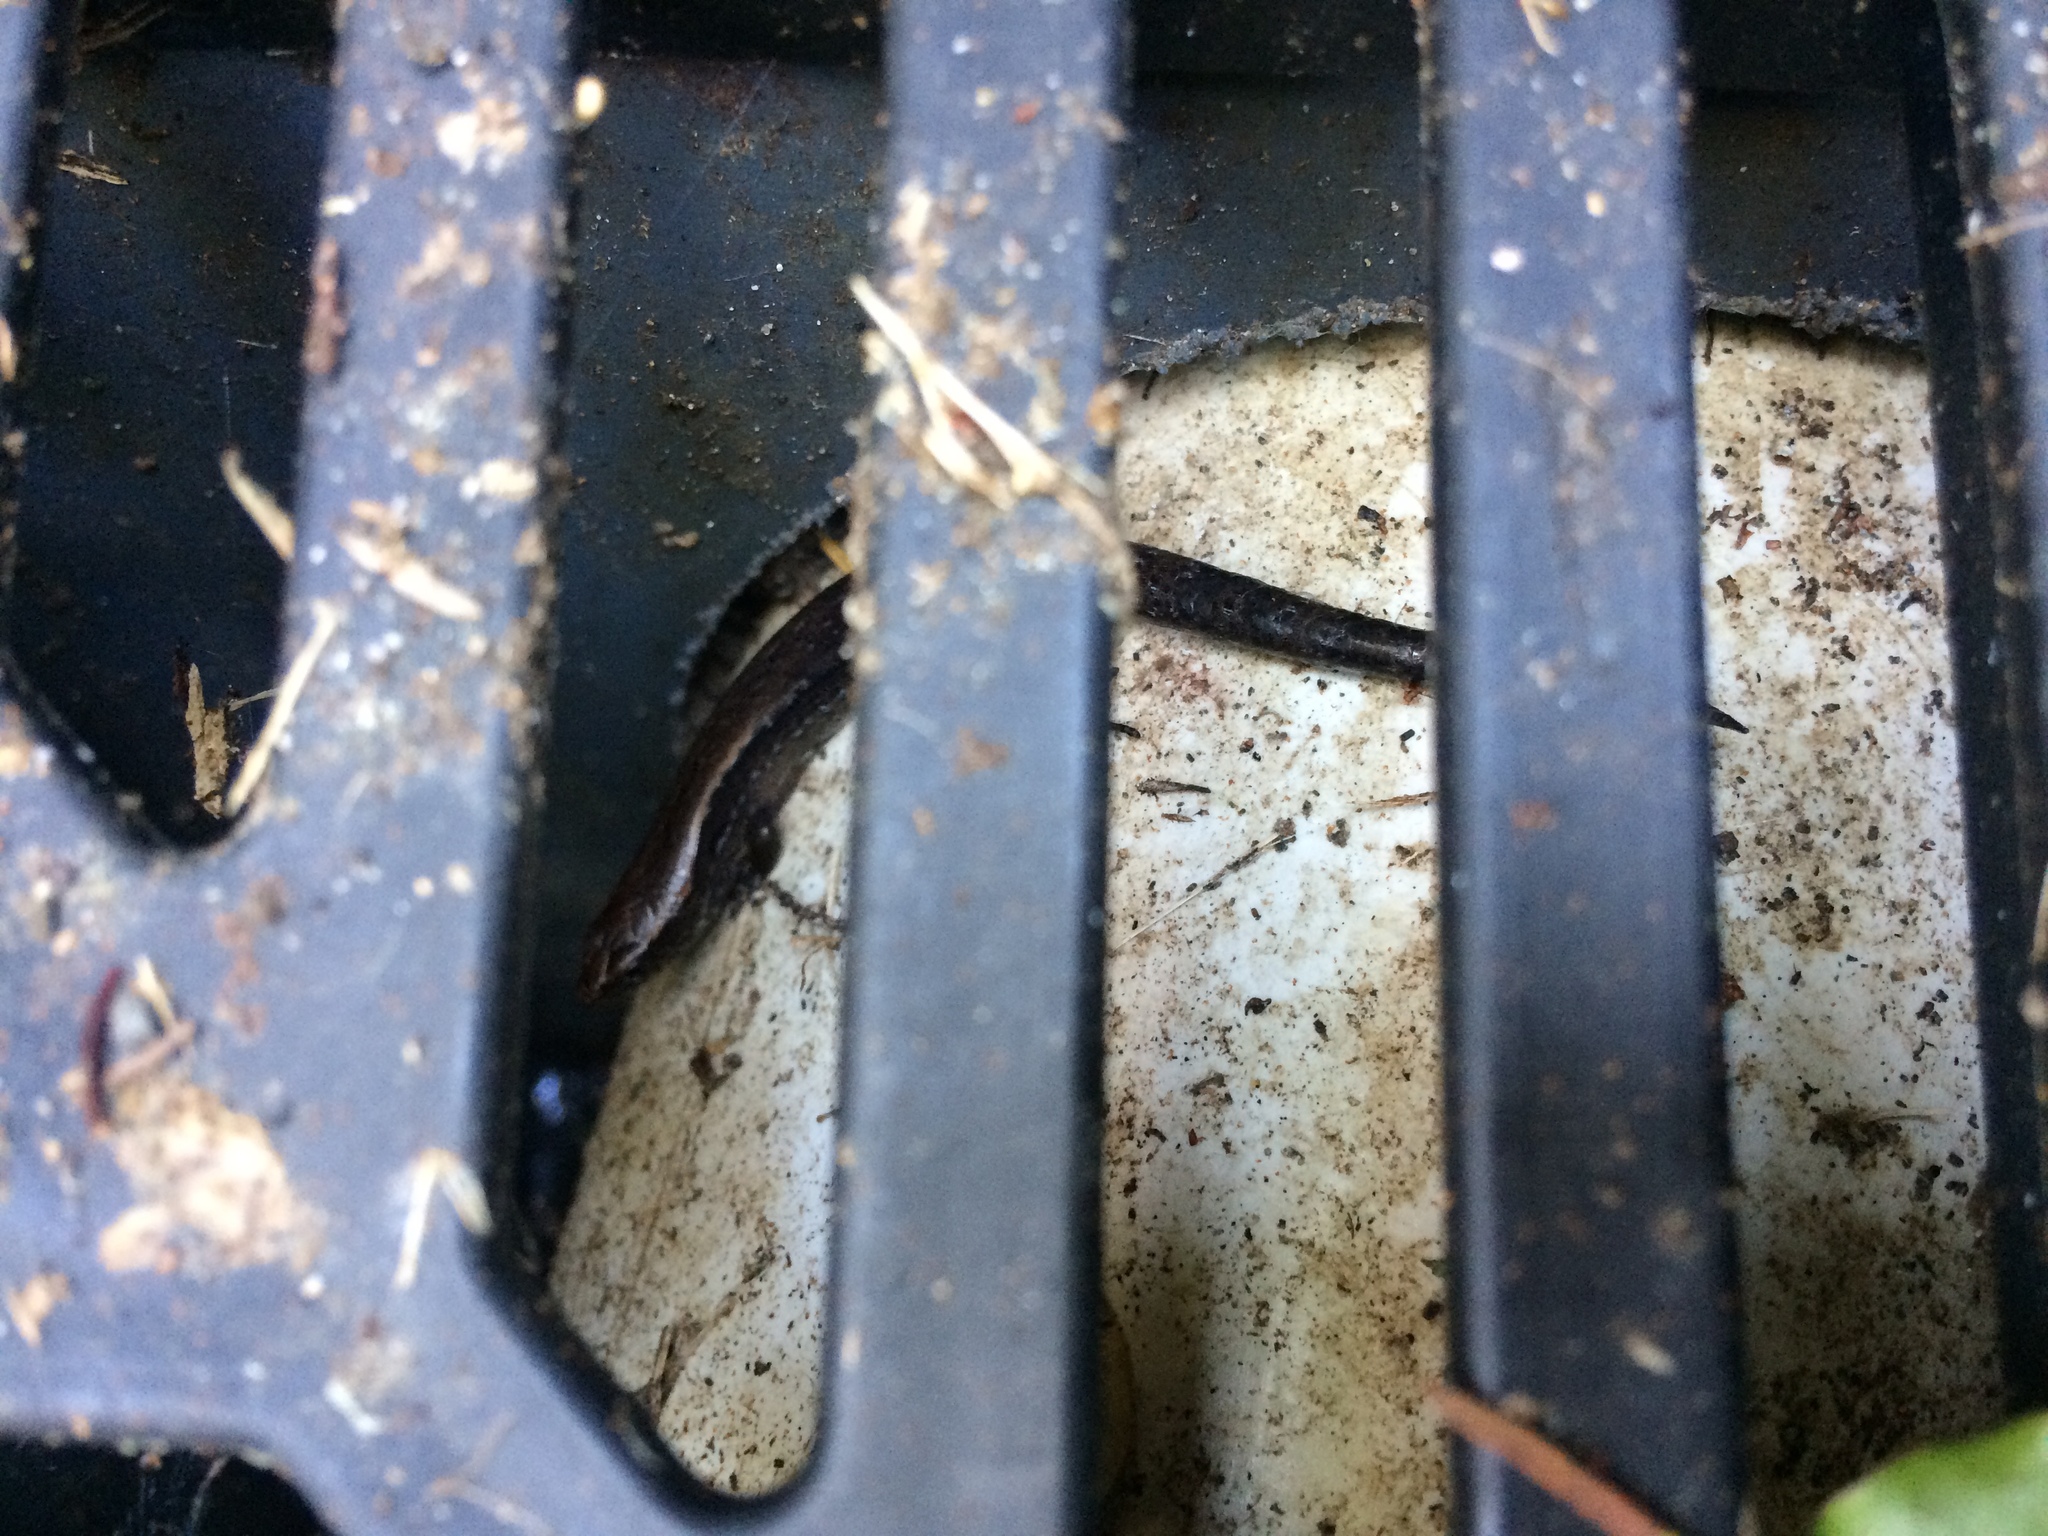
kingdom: Animalia
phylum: Chordata
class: Squamata
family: Scincidae
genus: Oligosoma
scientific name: Oligosoma aeneum
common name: Copper skink
